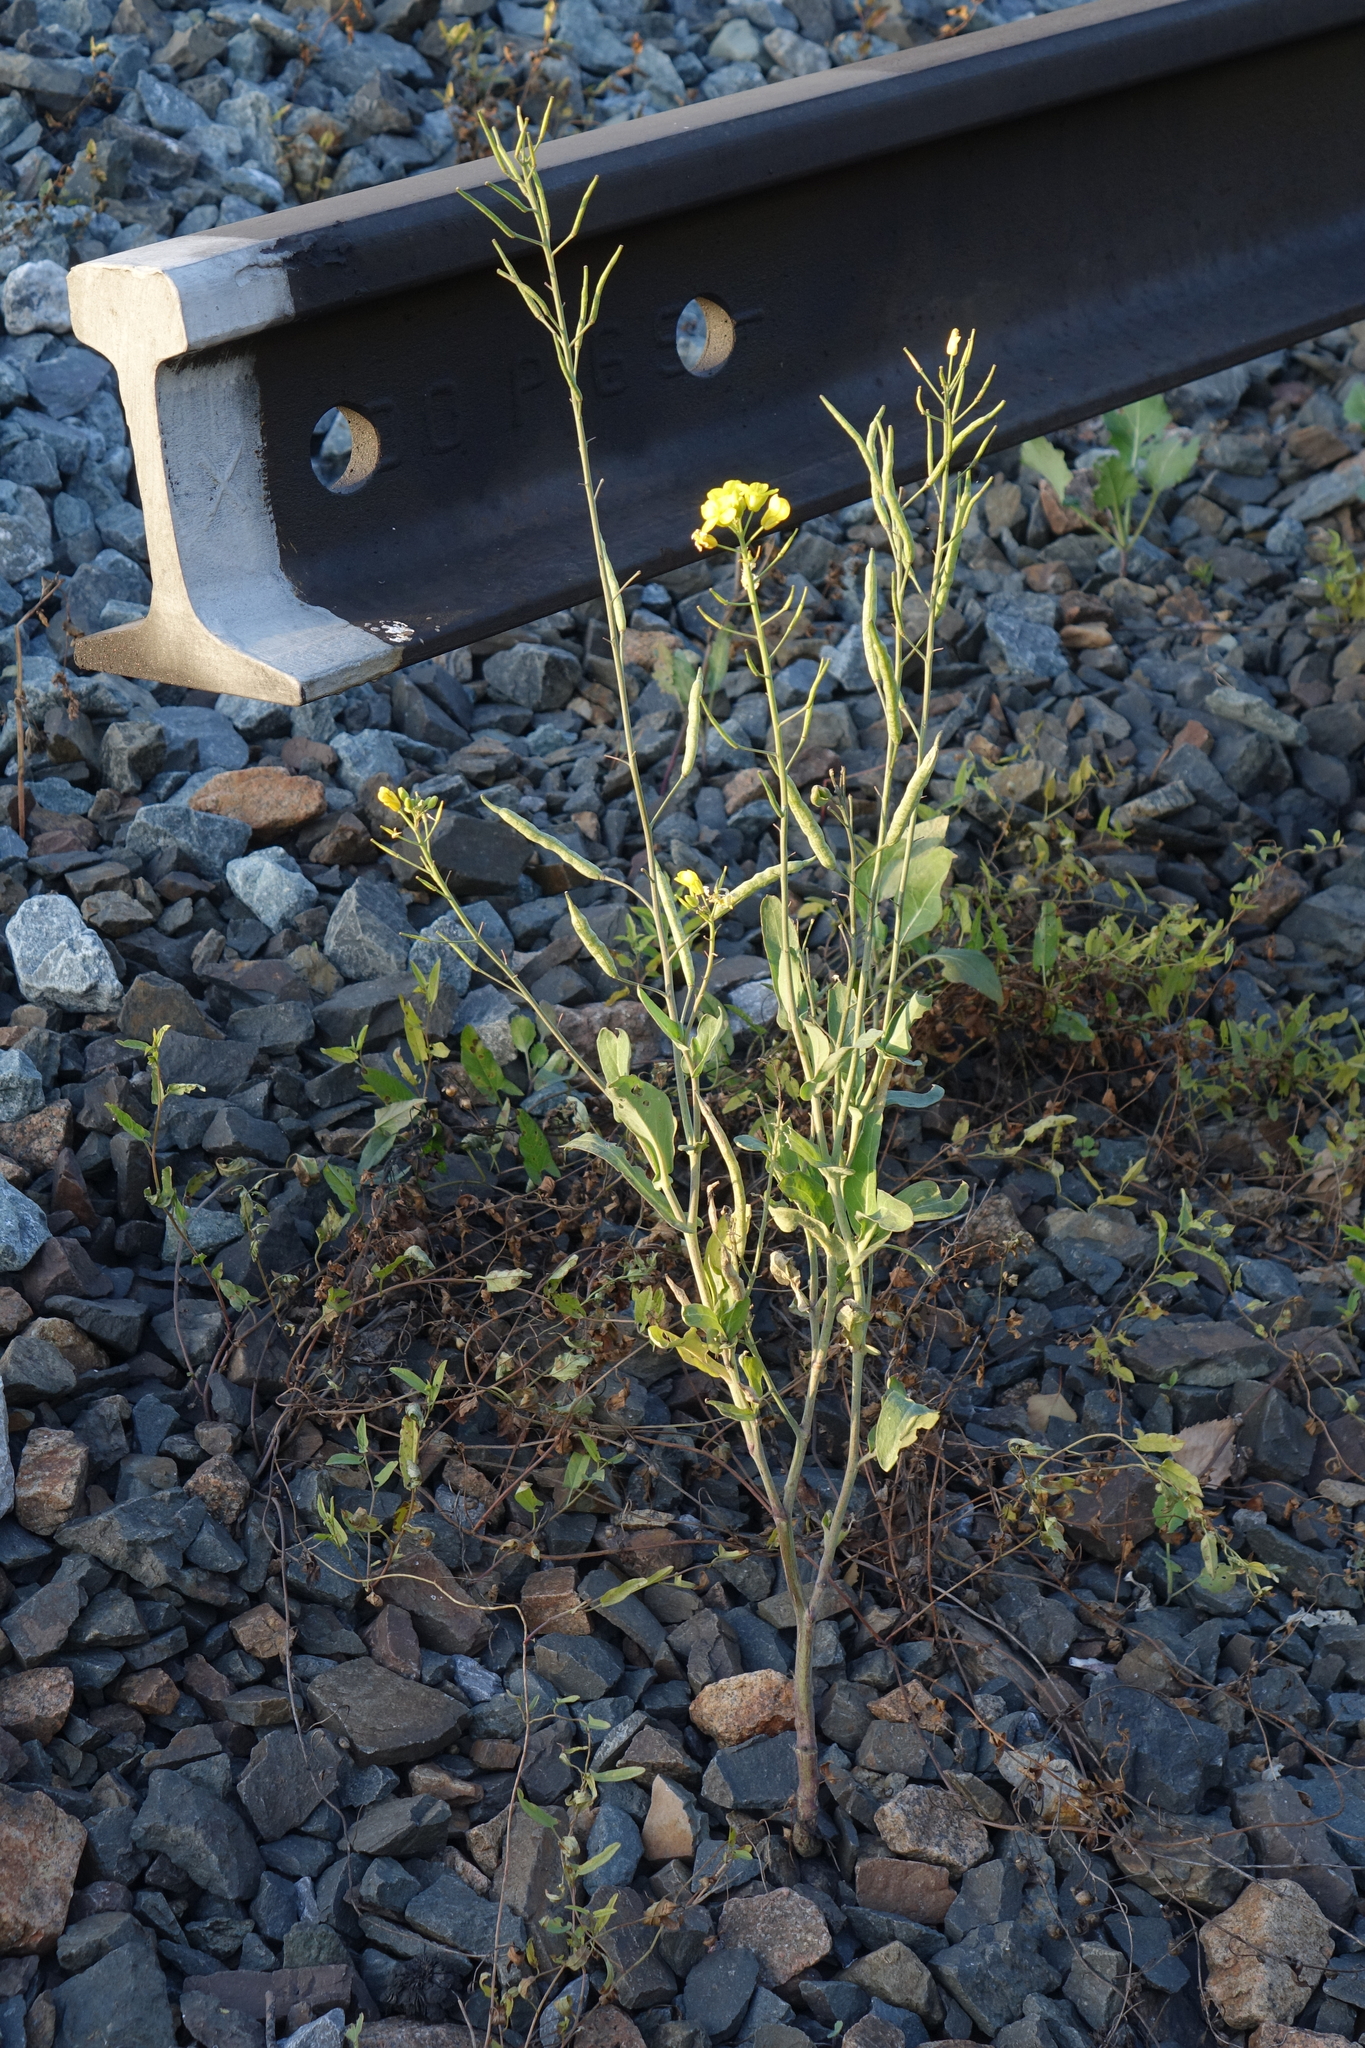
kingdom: Plantae
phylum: Tracheophyta
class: Magnoliopsida
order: Brassicales
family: Brassicaceae
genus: Brassica
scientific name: Brassica napus
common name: Rape
